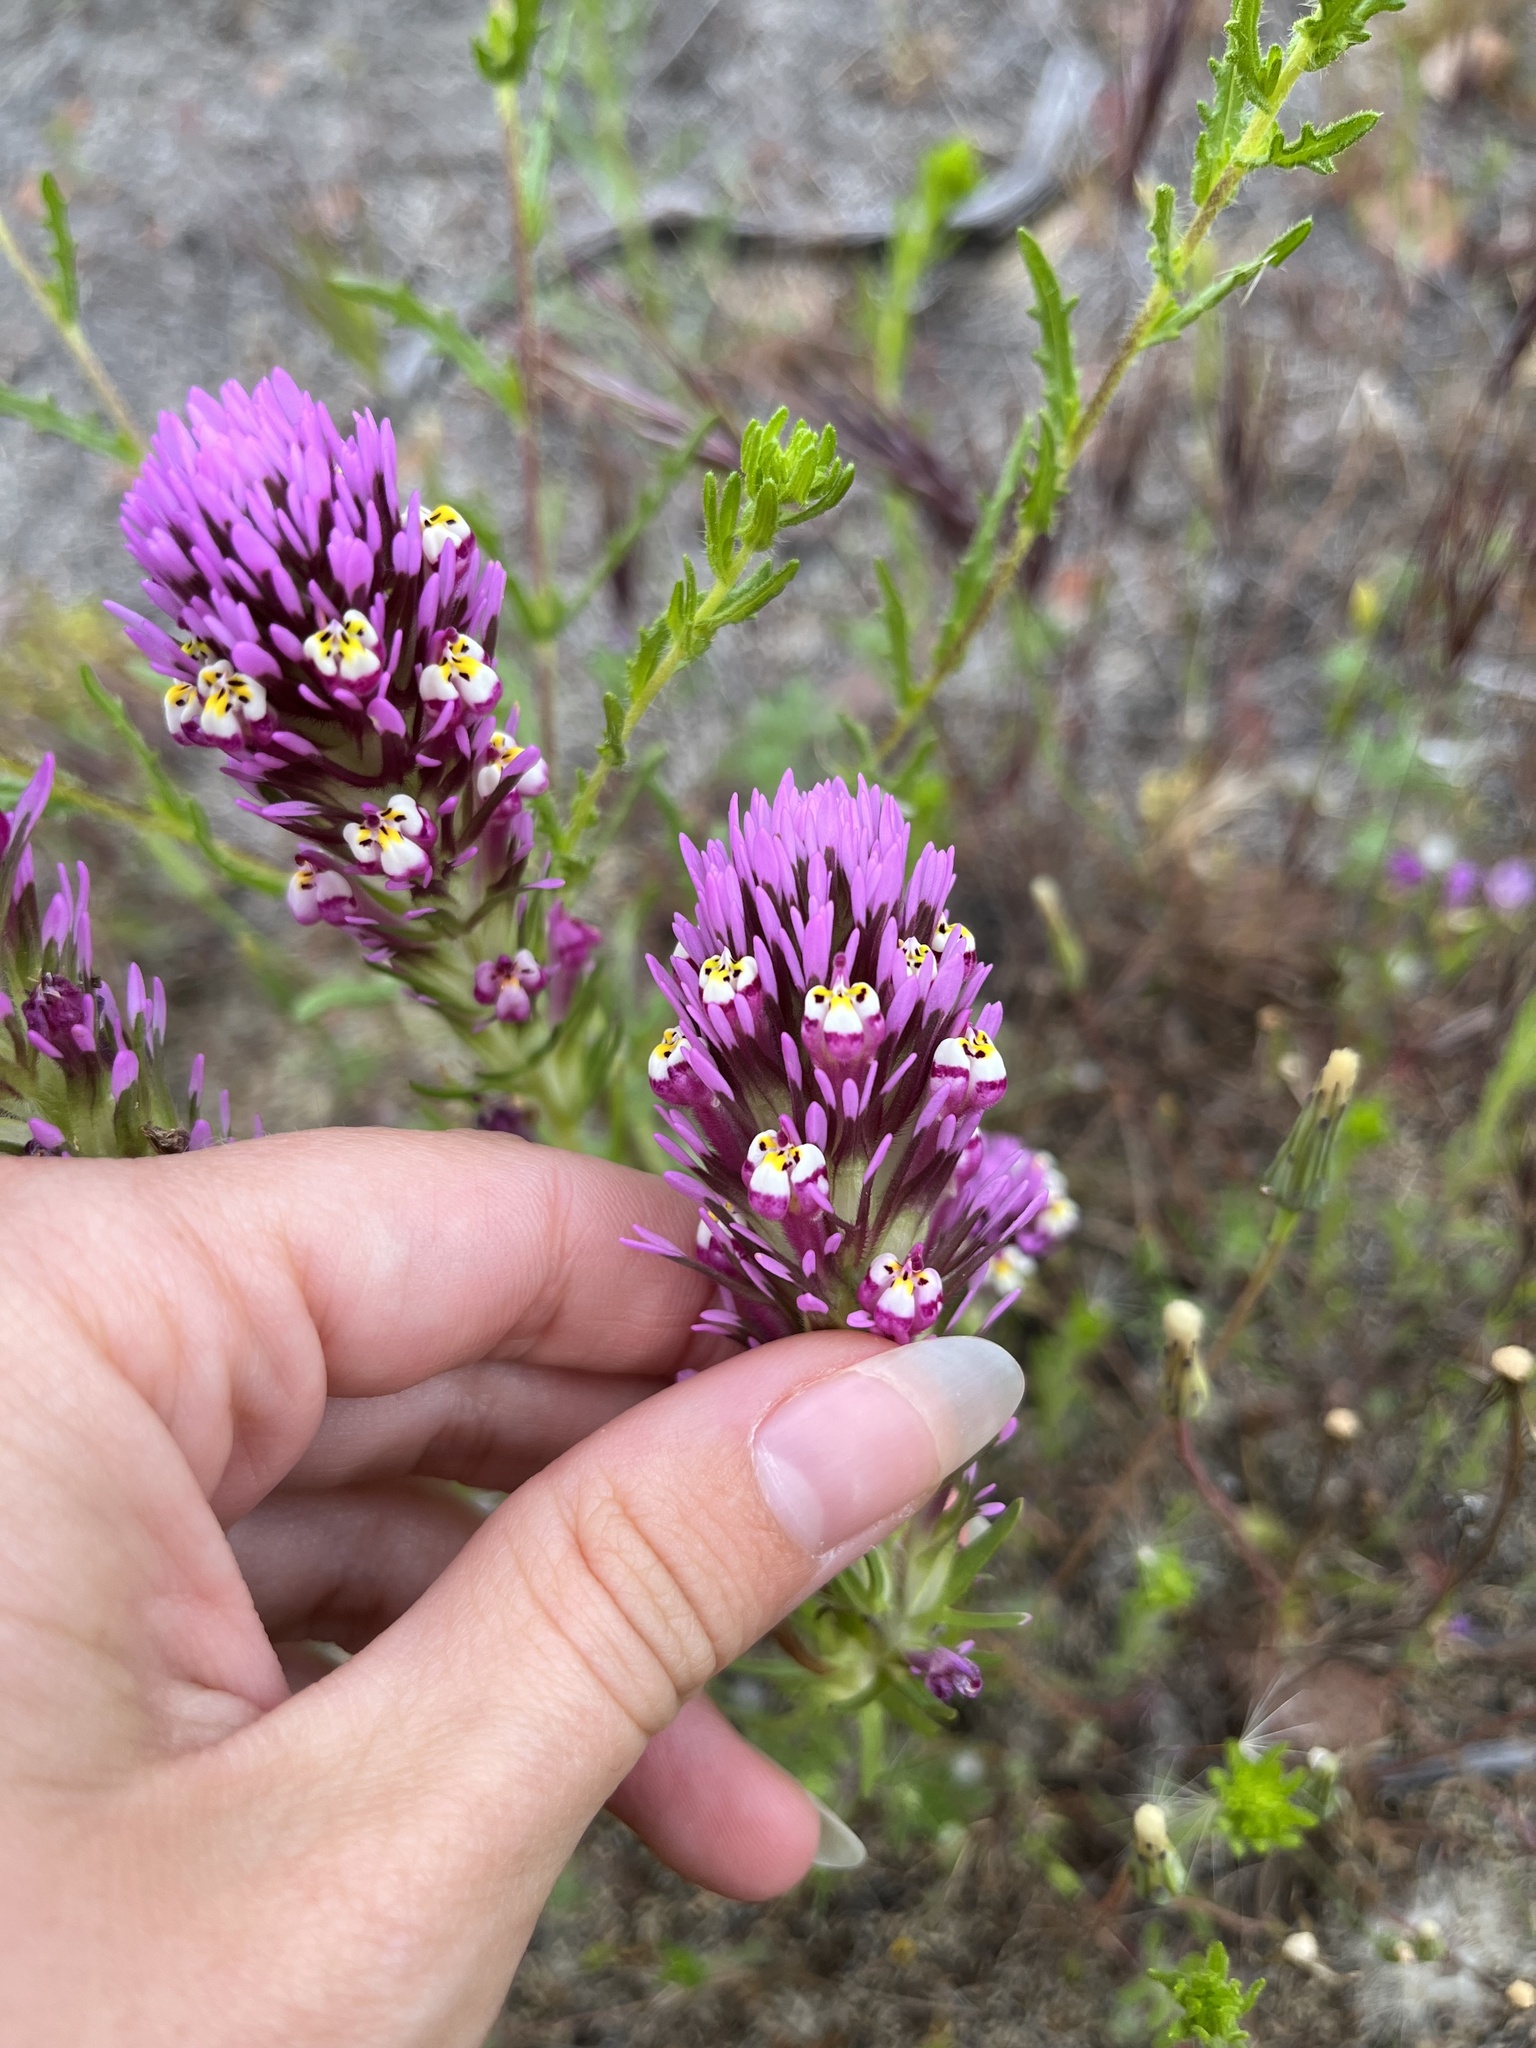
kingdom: Plantae
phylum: Tracheophyta
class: Magnoliopsida
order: Lamiales
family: Orobanchaceae
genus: Castilleja
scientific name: Castilleja densiflora
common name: Dense-flower indian paintbrush
